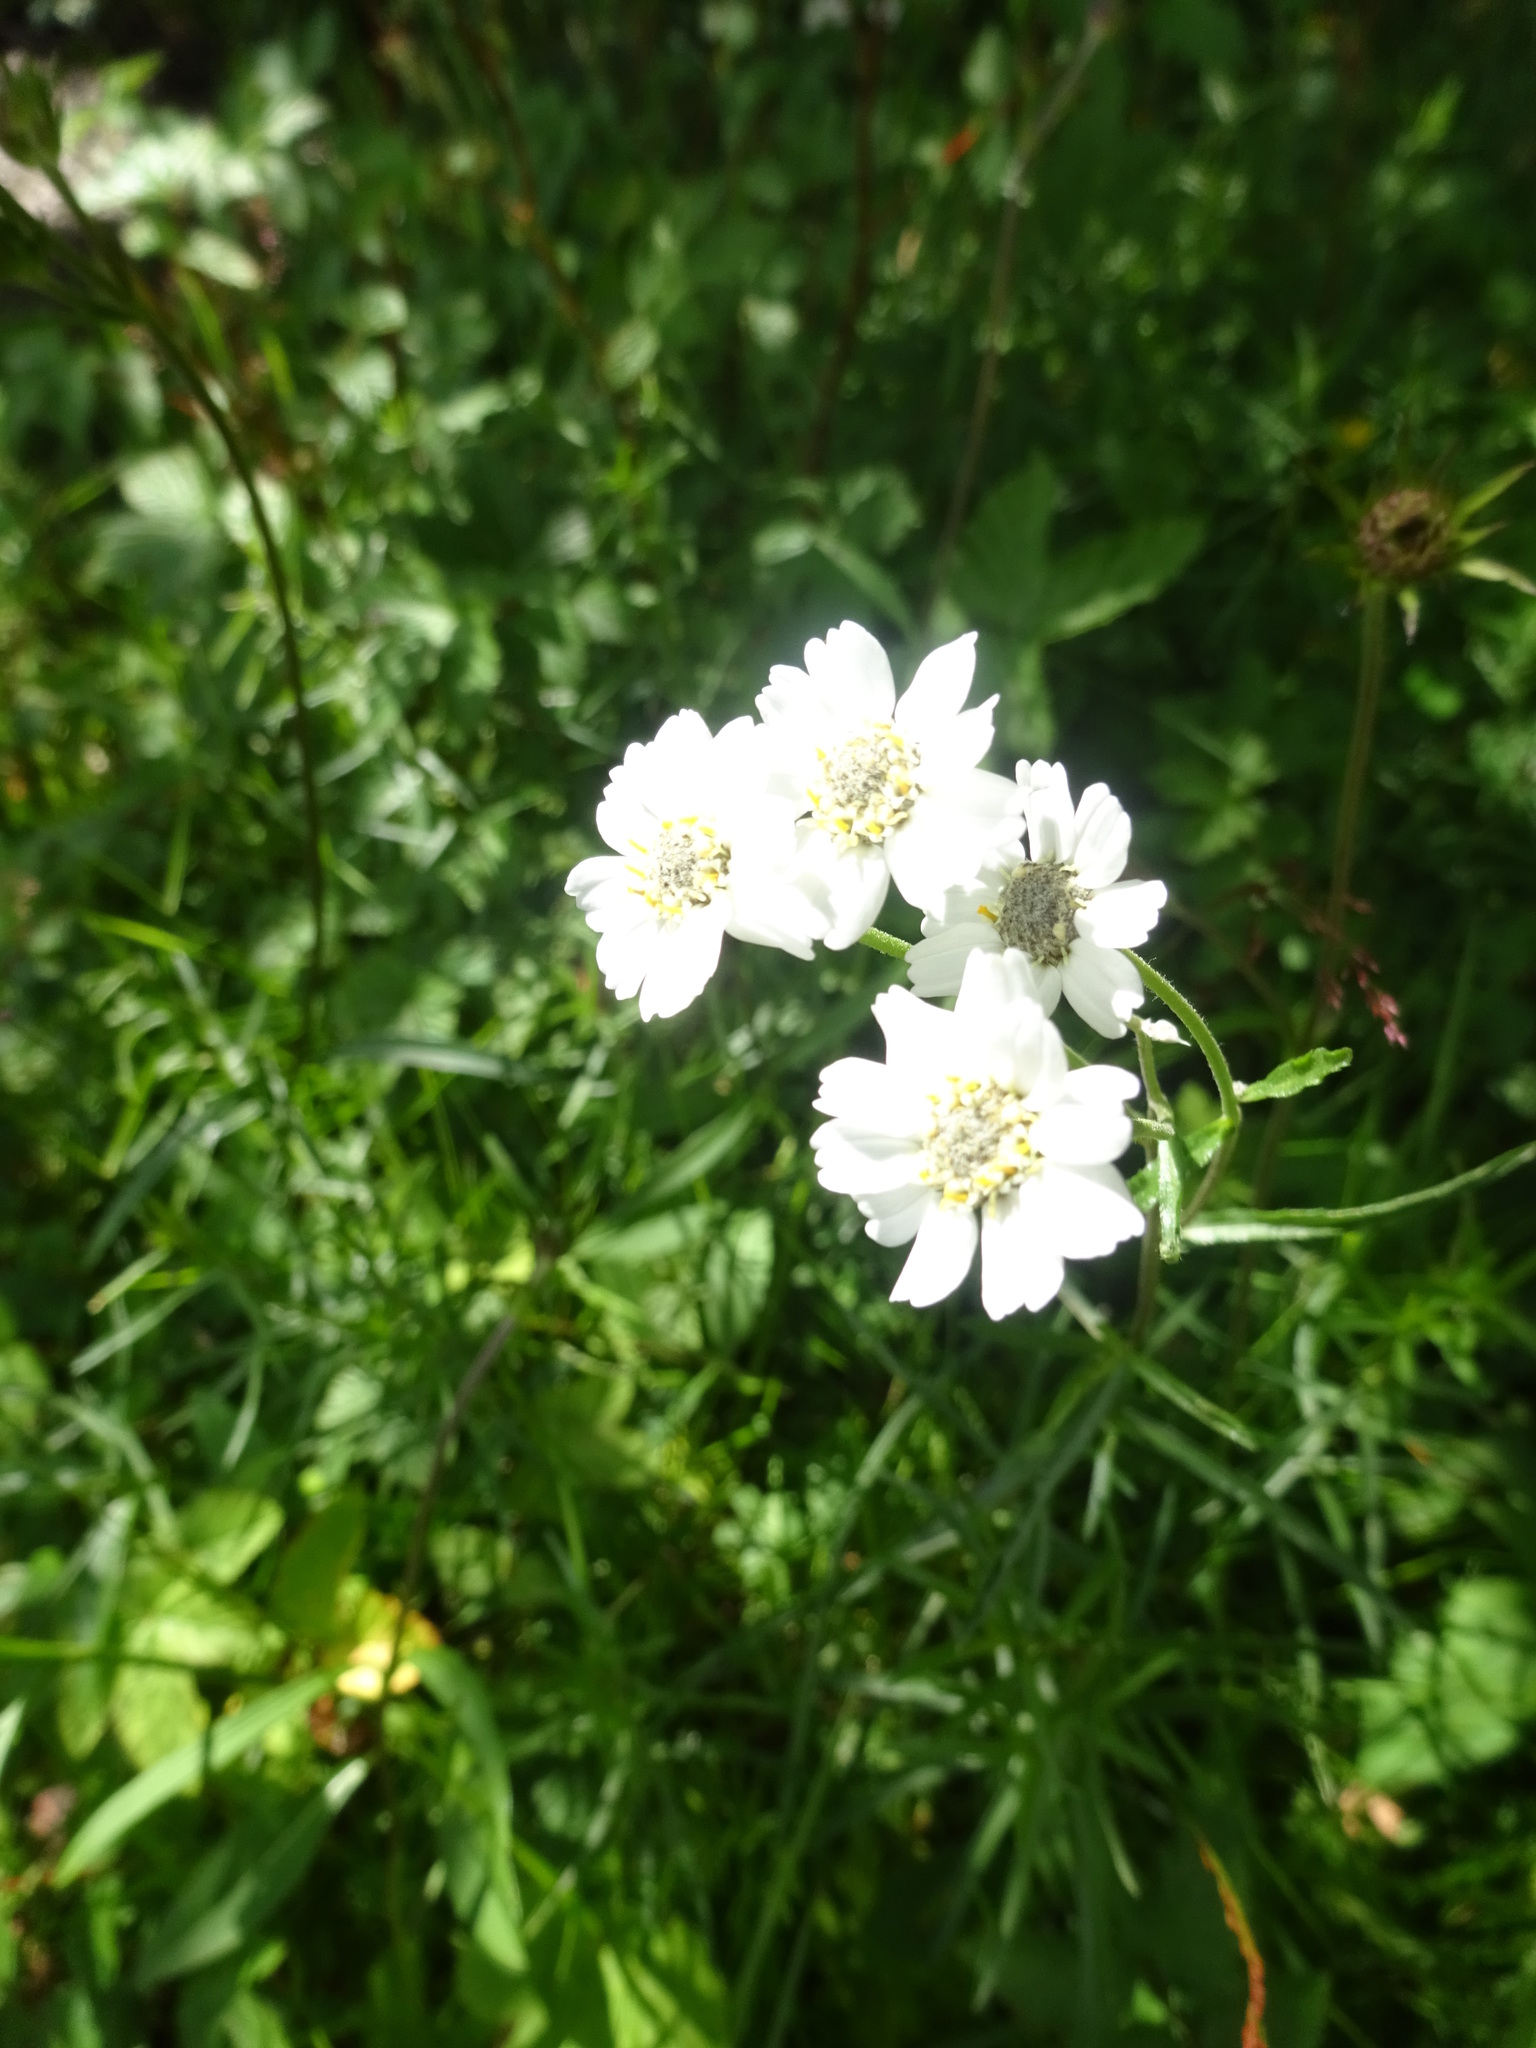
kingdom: Plantae
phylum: Tracheophyta
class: Magnoliopsida
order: Asterales
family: Asteraceae
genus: Achillea
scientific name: Achillea ptarmica
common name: Sneezeweed
